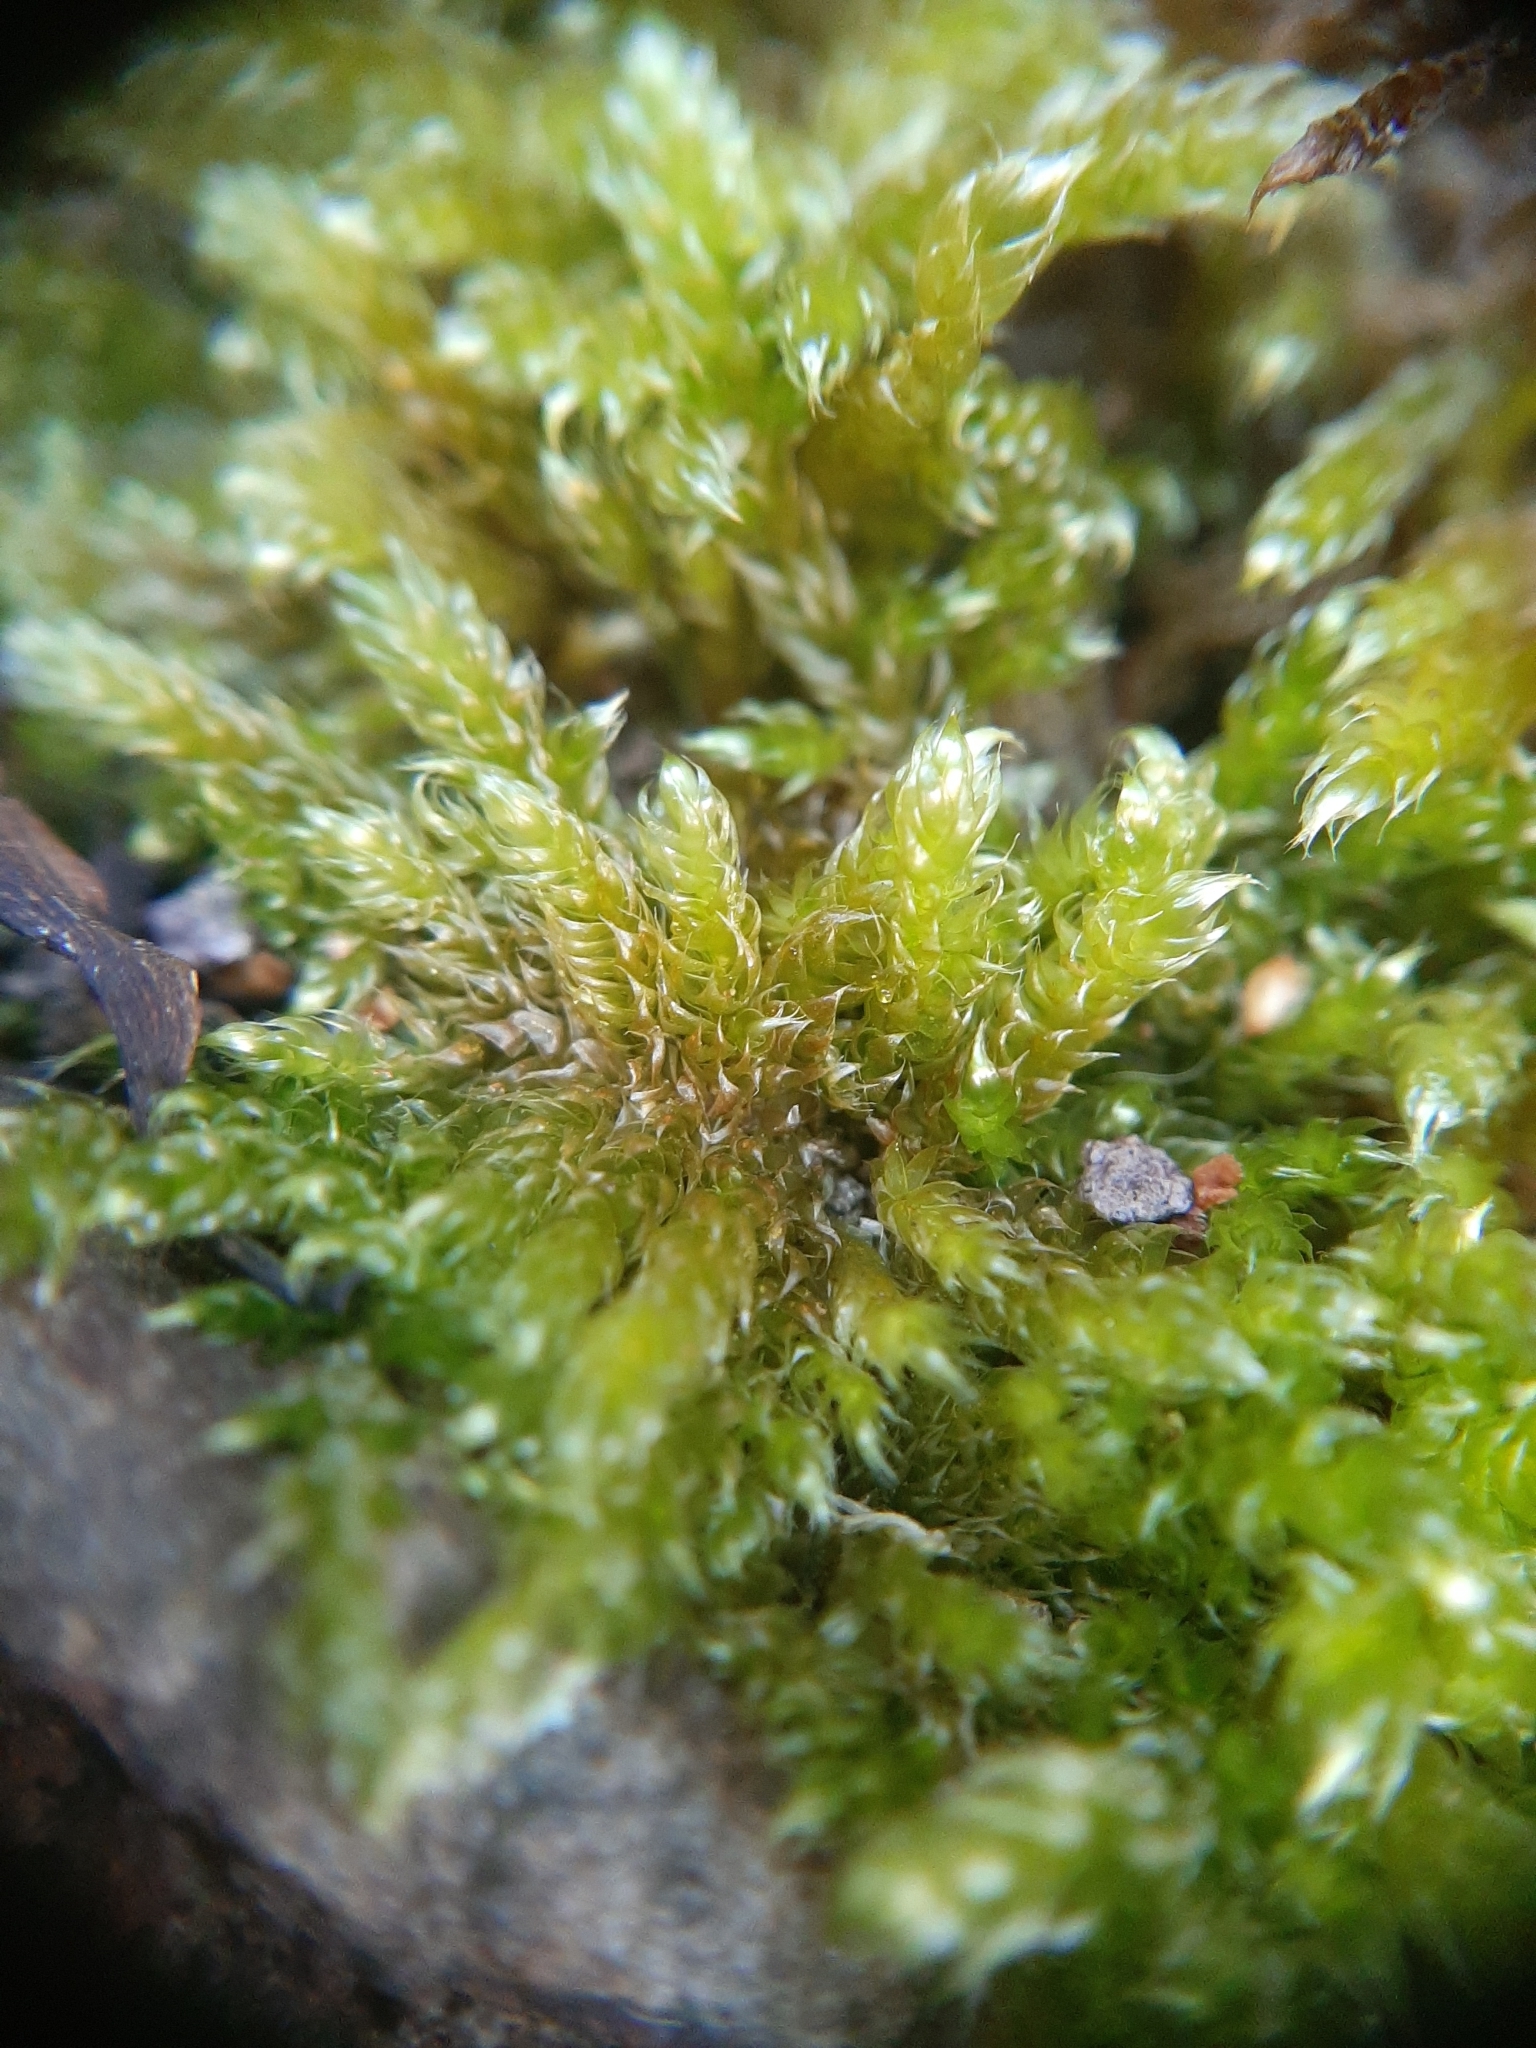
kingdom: Plantae
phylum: Bryophyta
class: Bryopsida
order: Hypnales
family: Hypnaceae
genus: Hypnum
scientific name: Hypnum cupressiforme
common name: Cypress-leaved plait-moss
